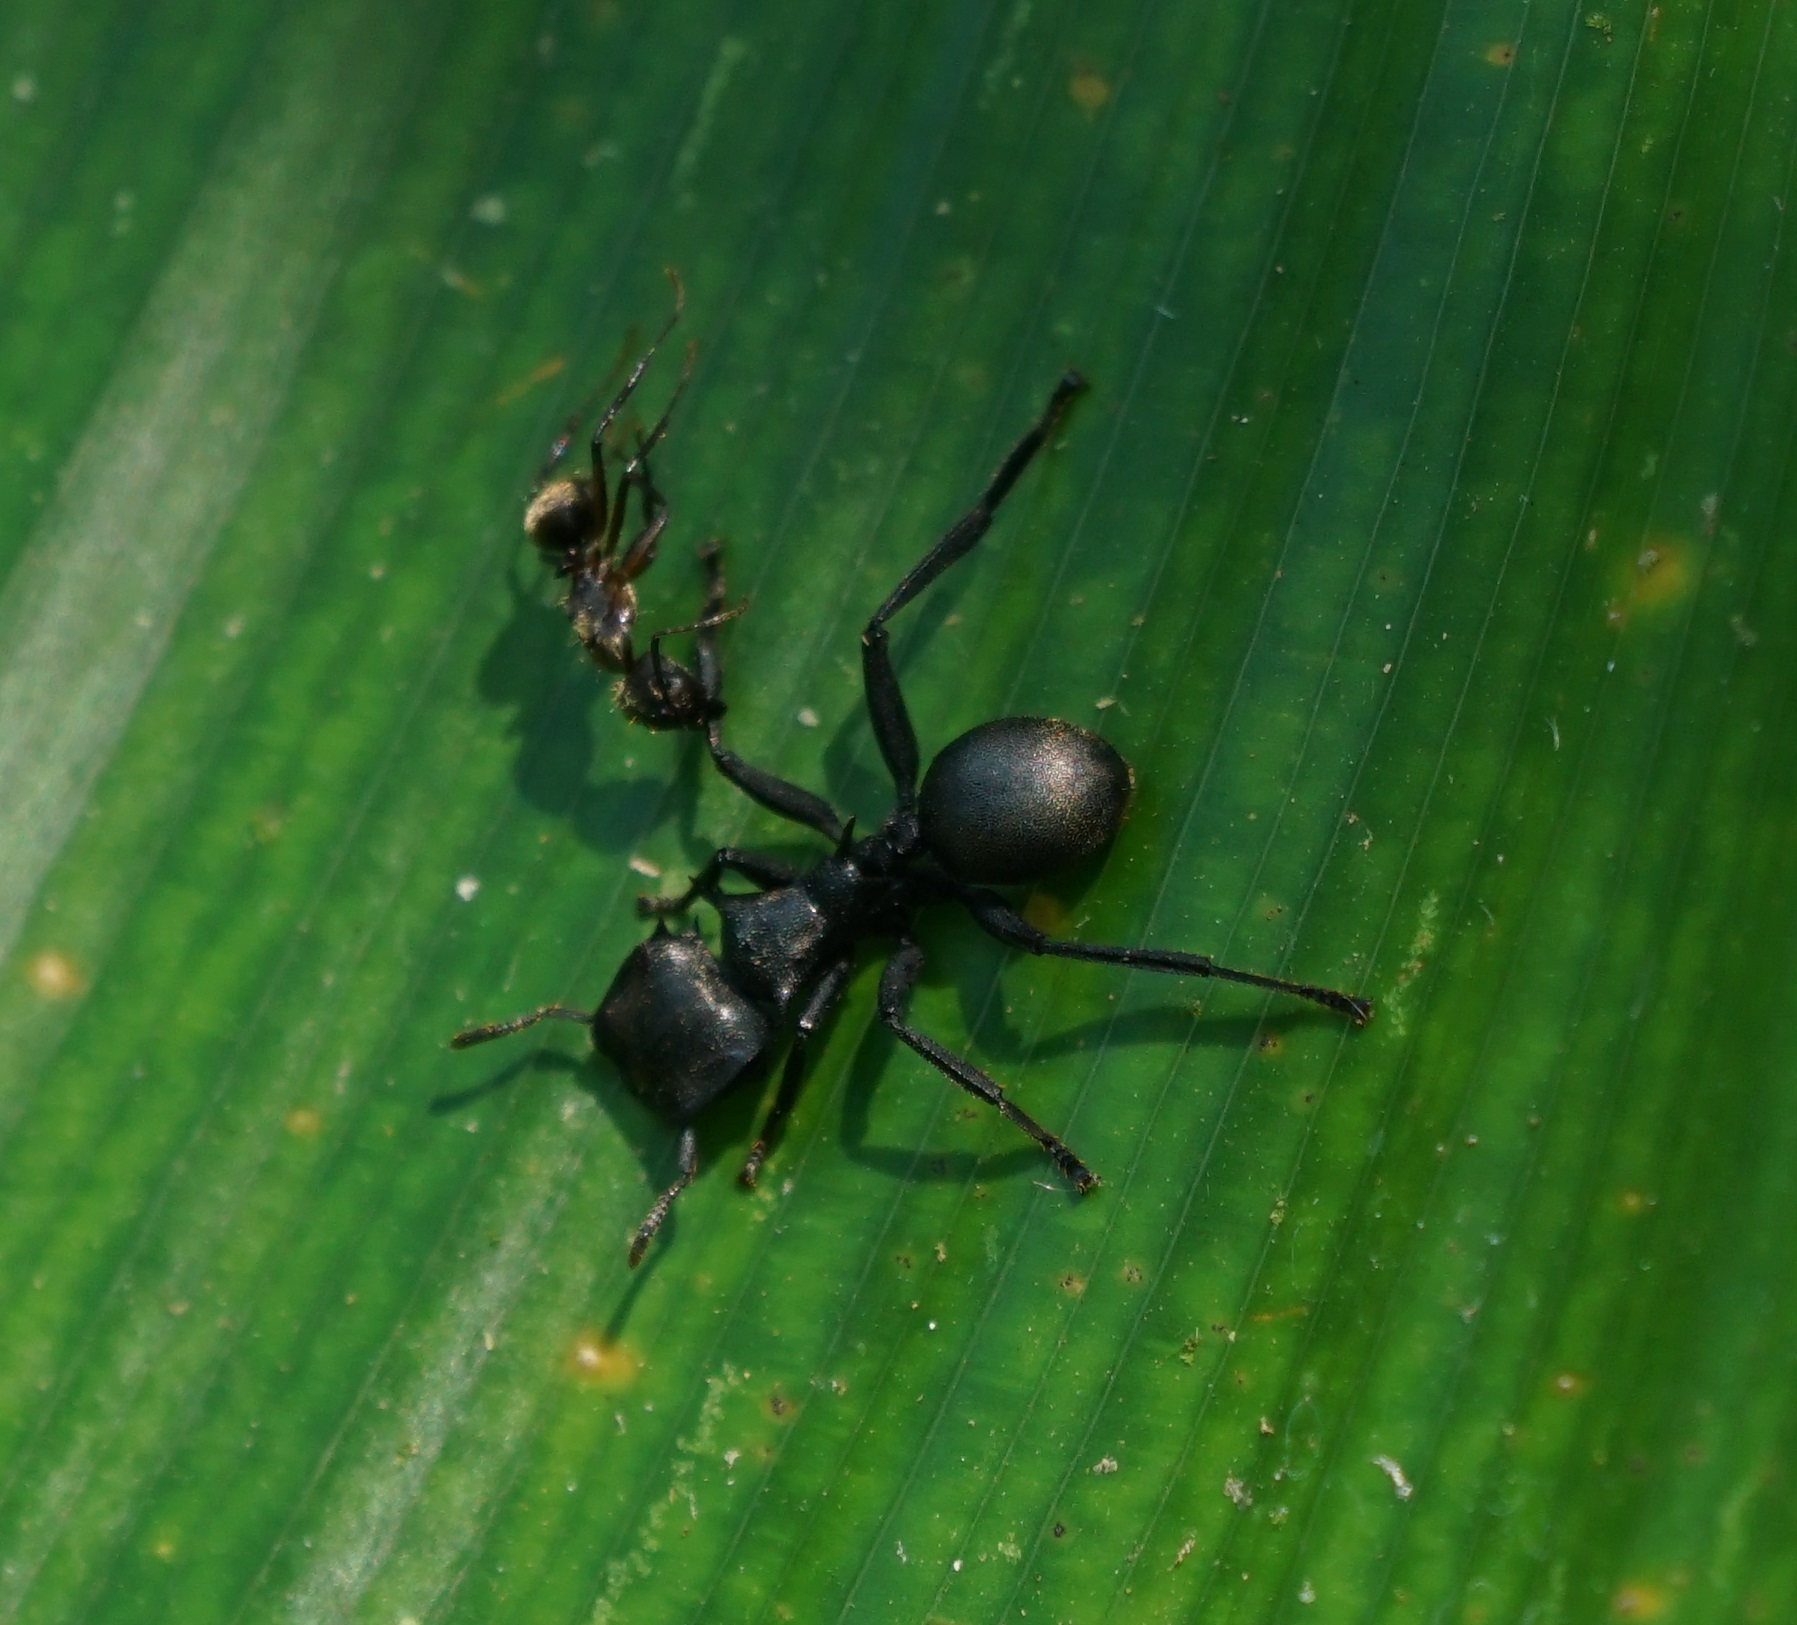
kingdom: Animalia
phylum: Arthropoda
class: Insecta
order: Hymenoptera
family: Formicidae
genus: Camponotus
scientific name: Camponotus femoratus
